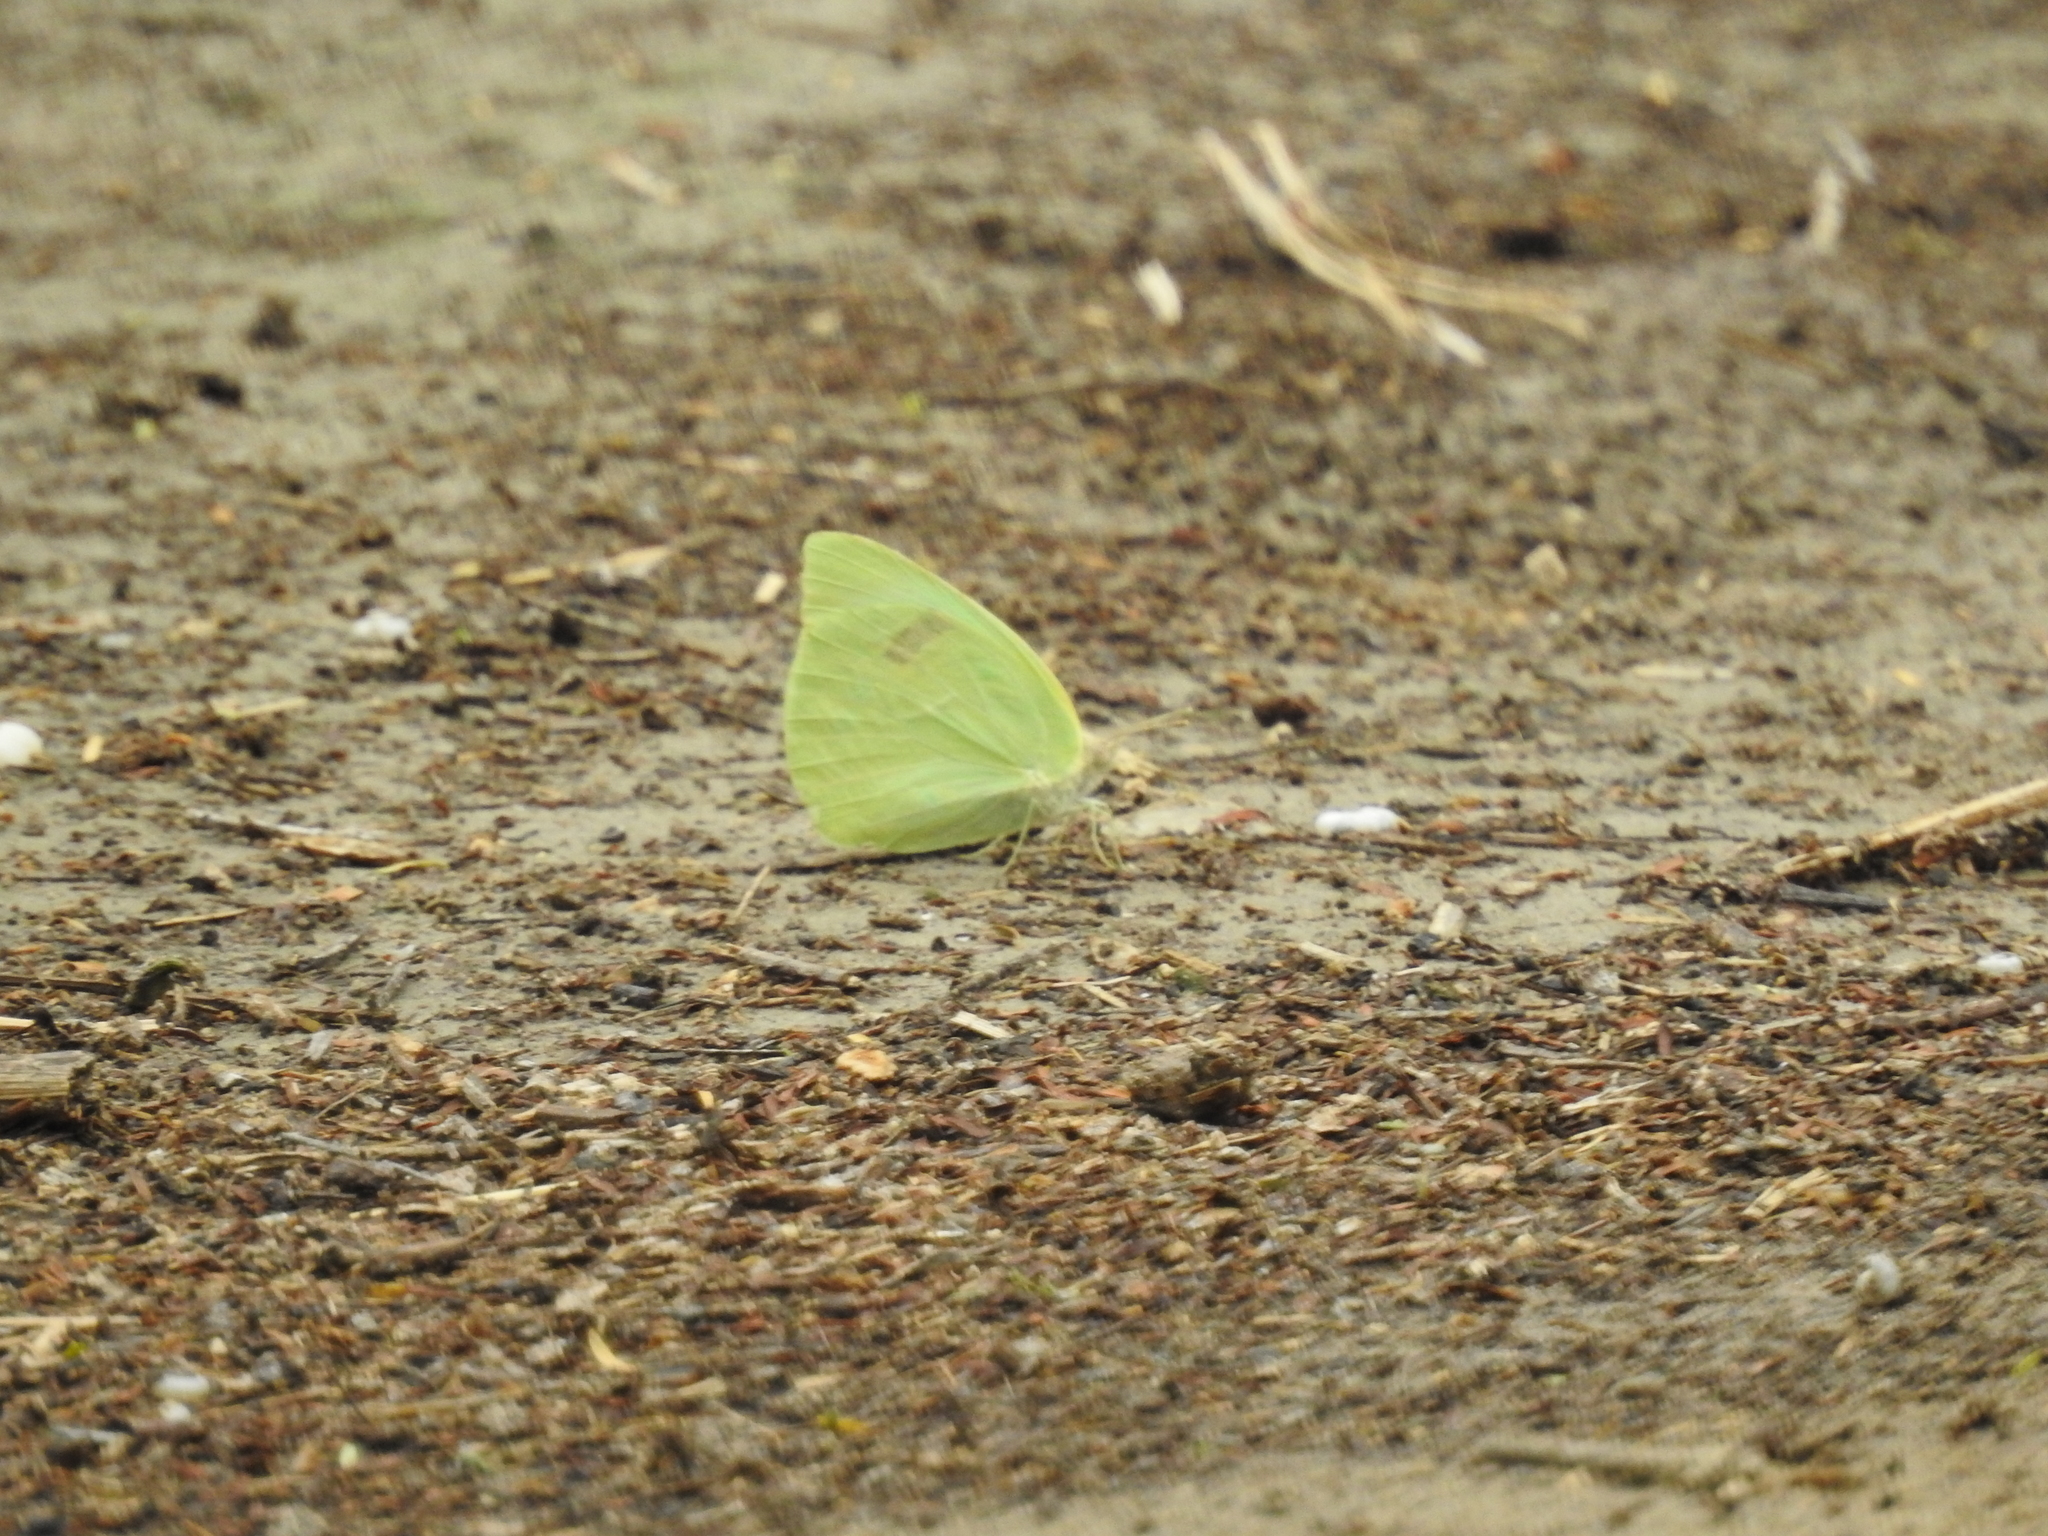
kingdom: Animalia
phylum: Arthropoda
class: Insecta
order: Lepidoptera
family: Pieridae
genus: Kricogonia
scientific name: Kricogonia lyside
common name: Guayacan sulphur,
